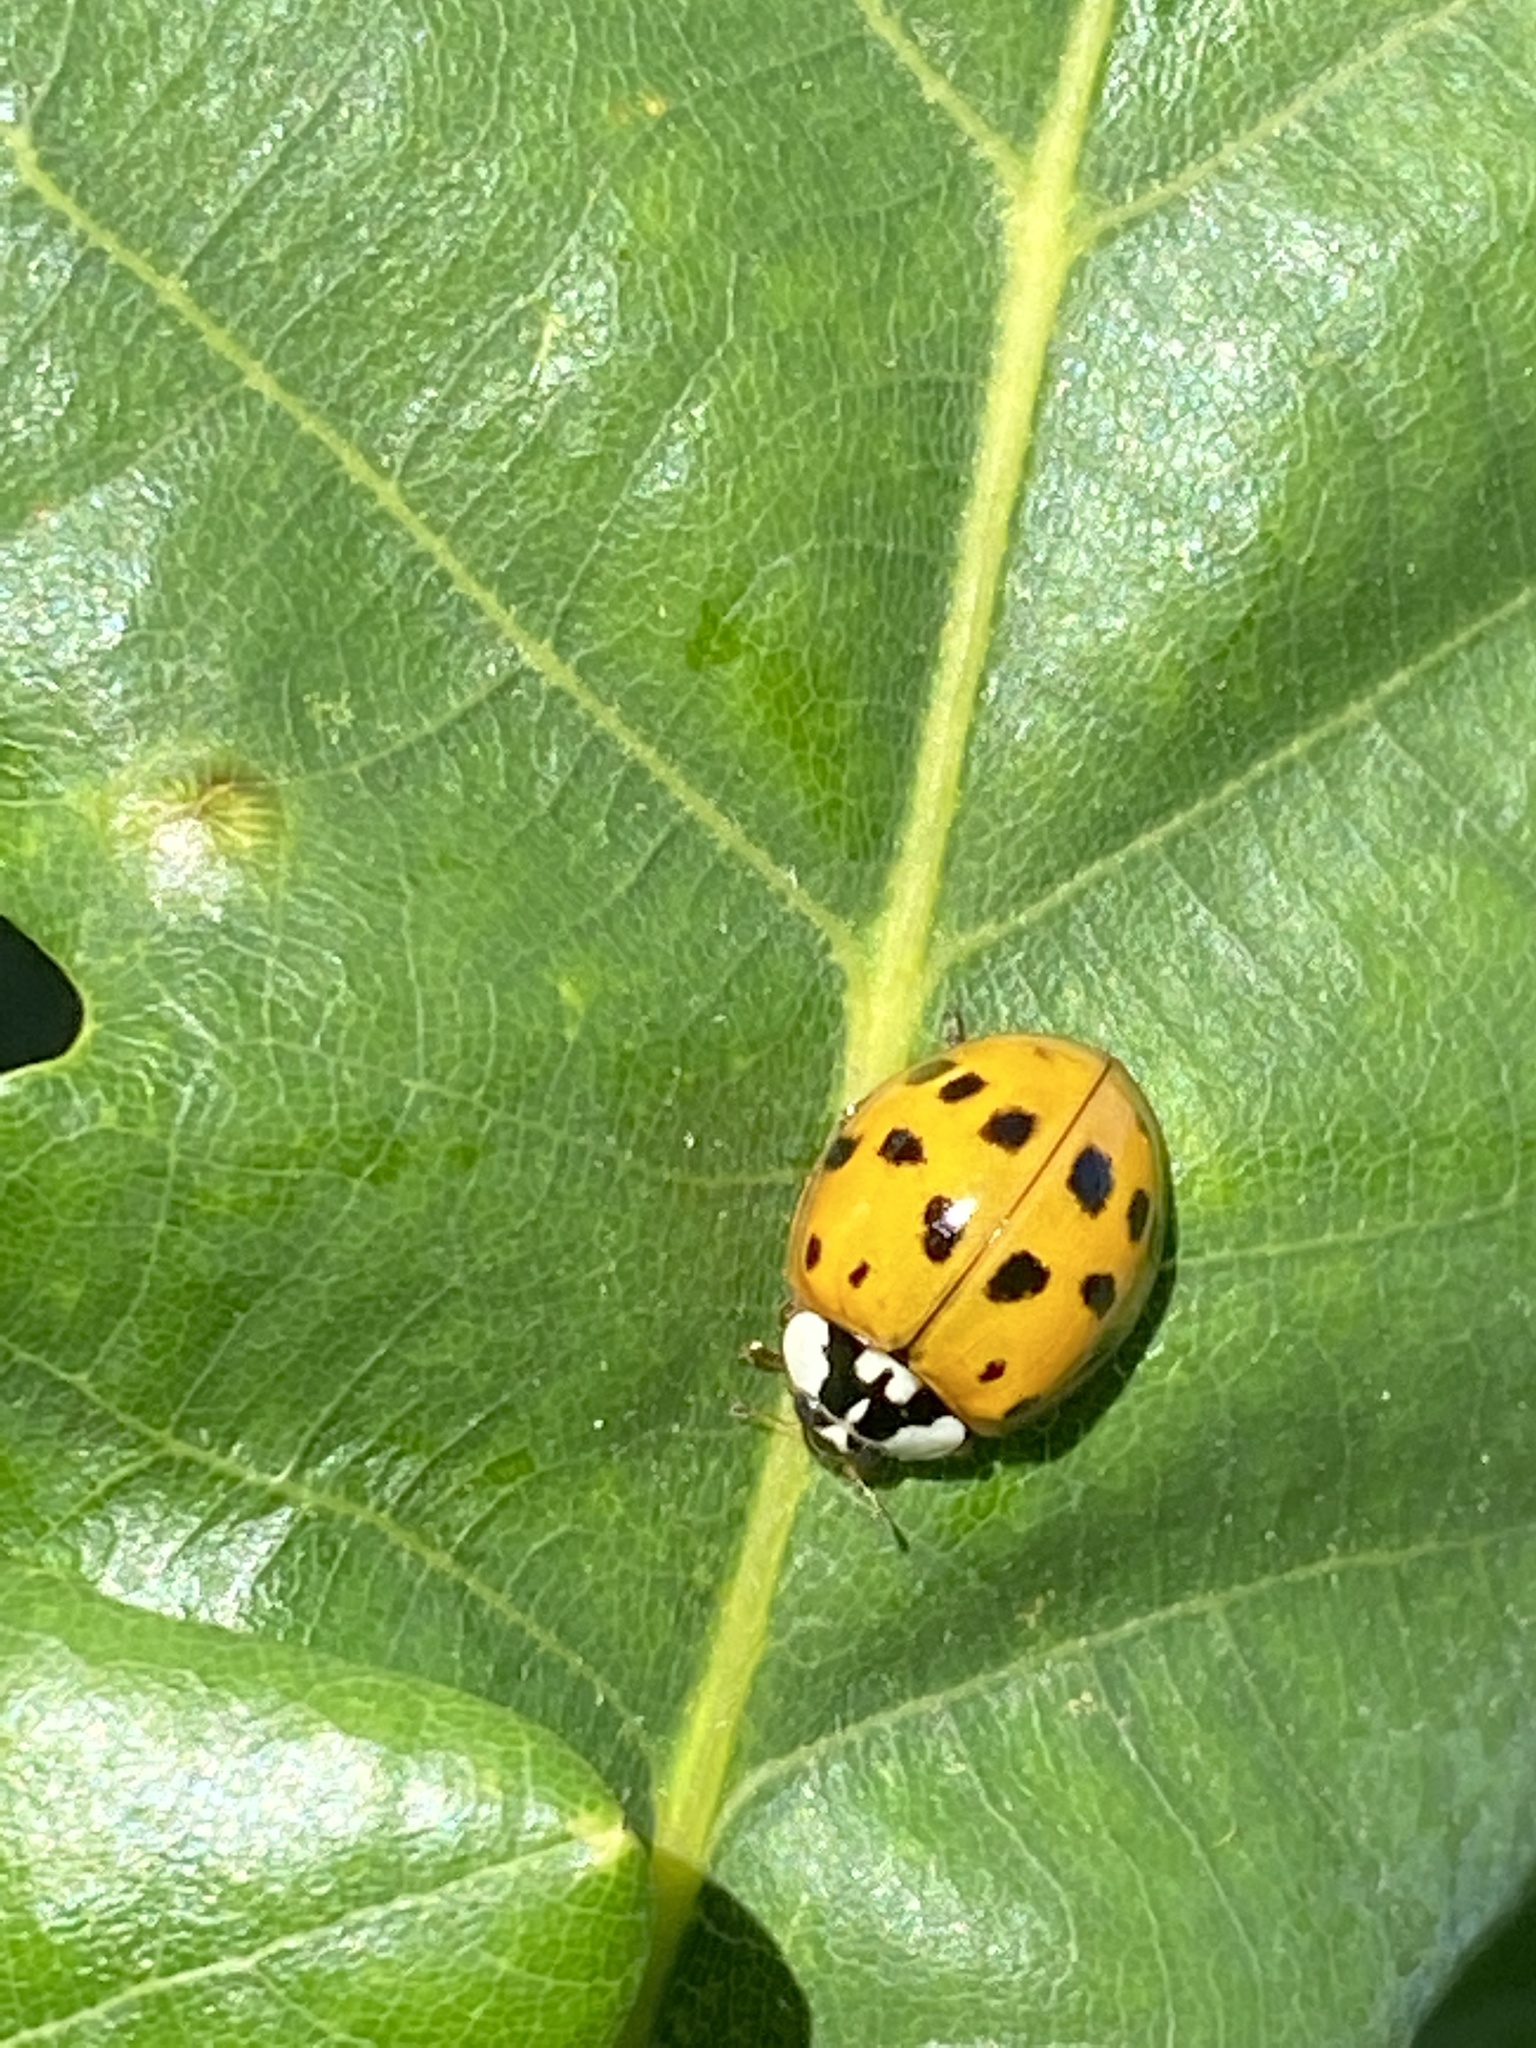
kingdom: Animalia
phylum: Arthropoda
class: Insecta
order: Coleoptera
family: Coccinellidae
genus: Harmonia
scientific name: Harmonia axyridis
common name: Harlequin ladybird
